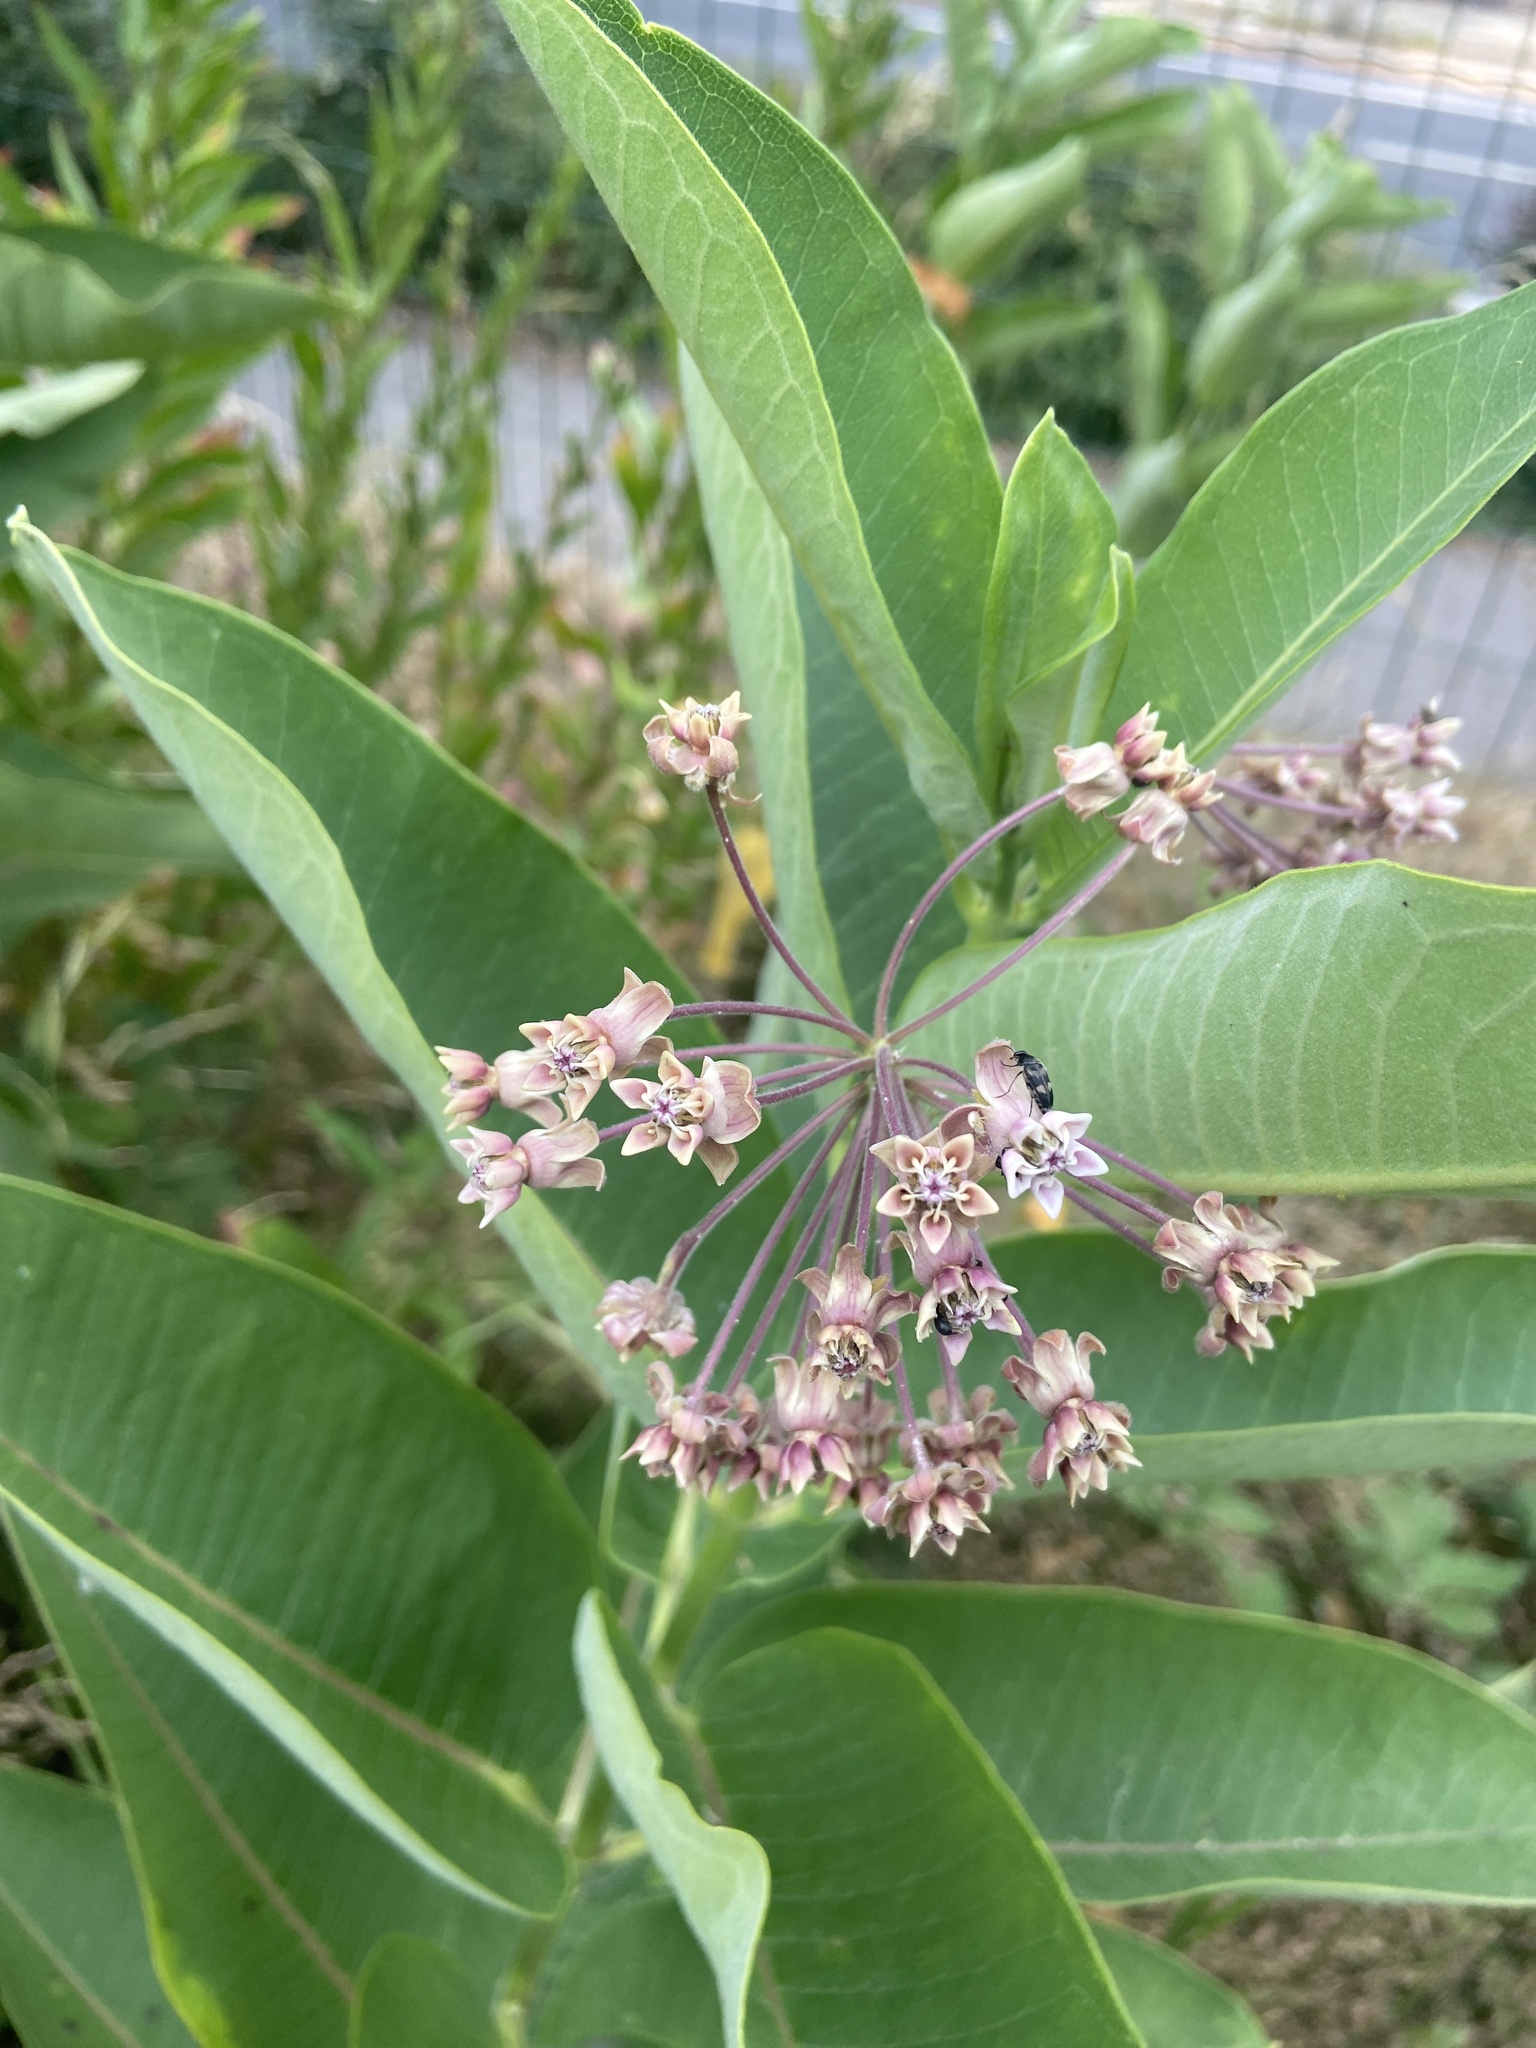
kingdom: Plantae
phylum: Tracheophyta
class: Magnoliopsida
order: Gentianales
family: Apocynaceae
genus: Asclepias
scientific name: Asclepias syriaca
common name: Common milkweed
